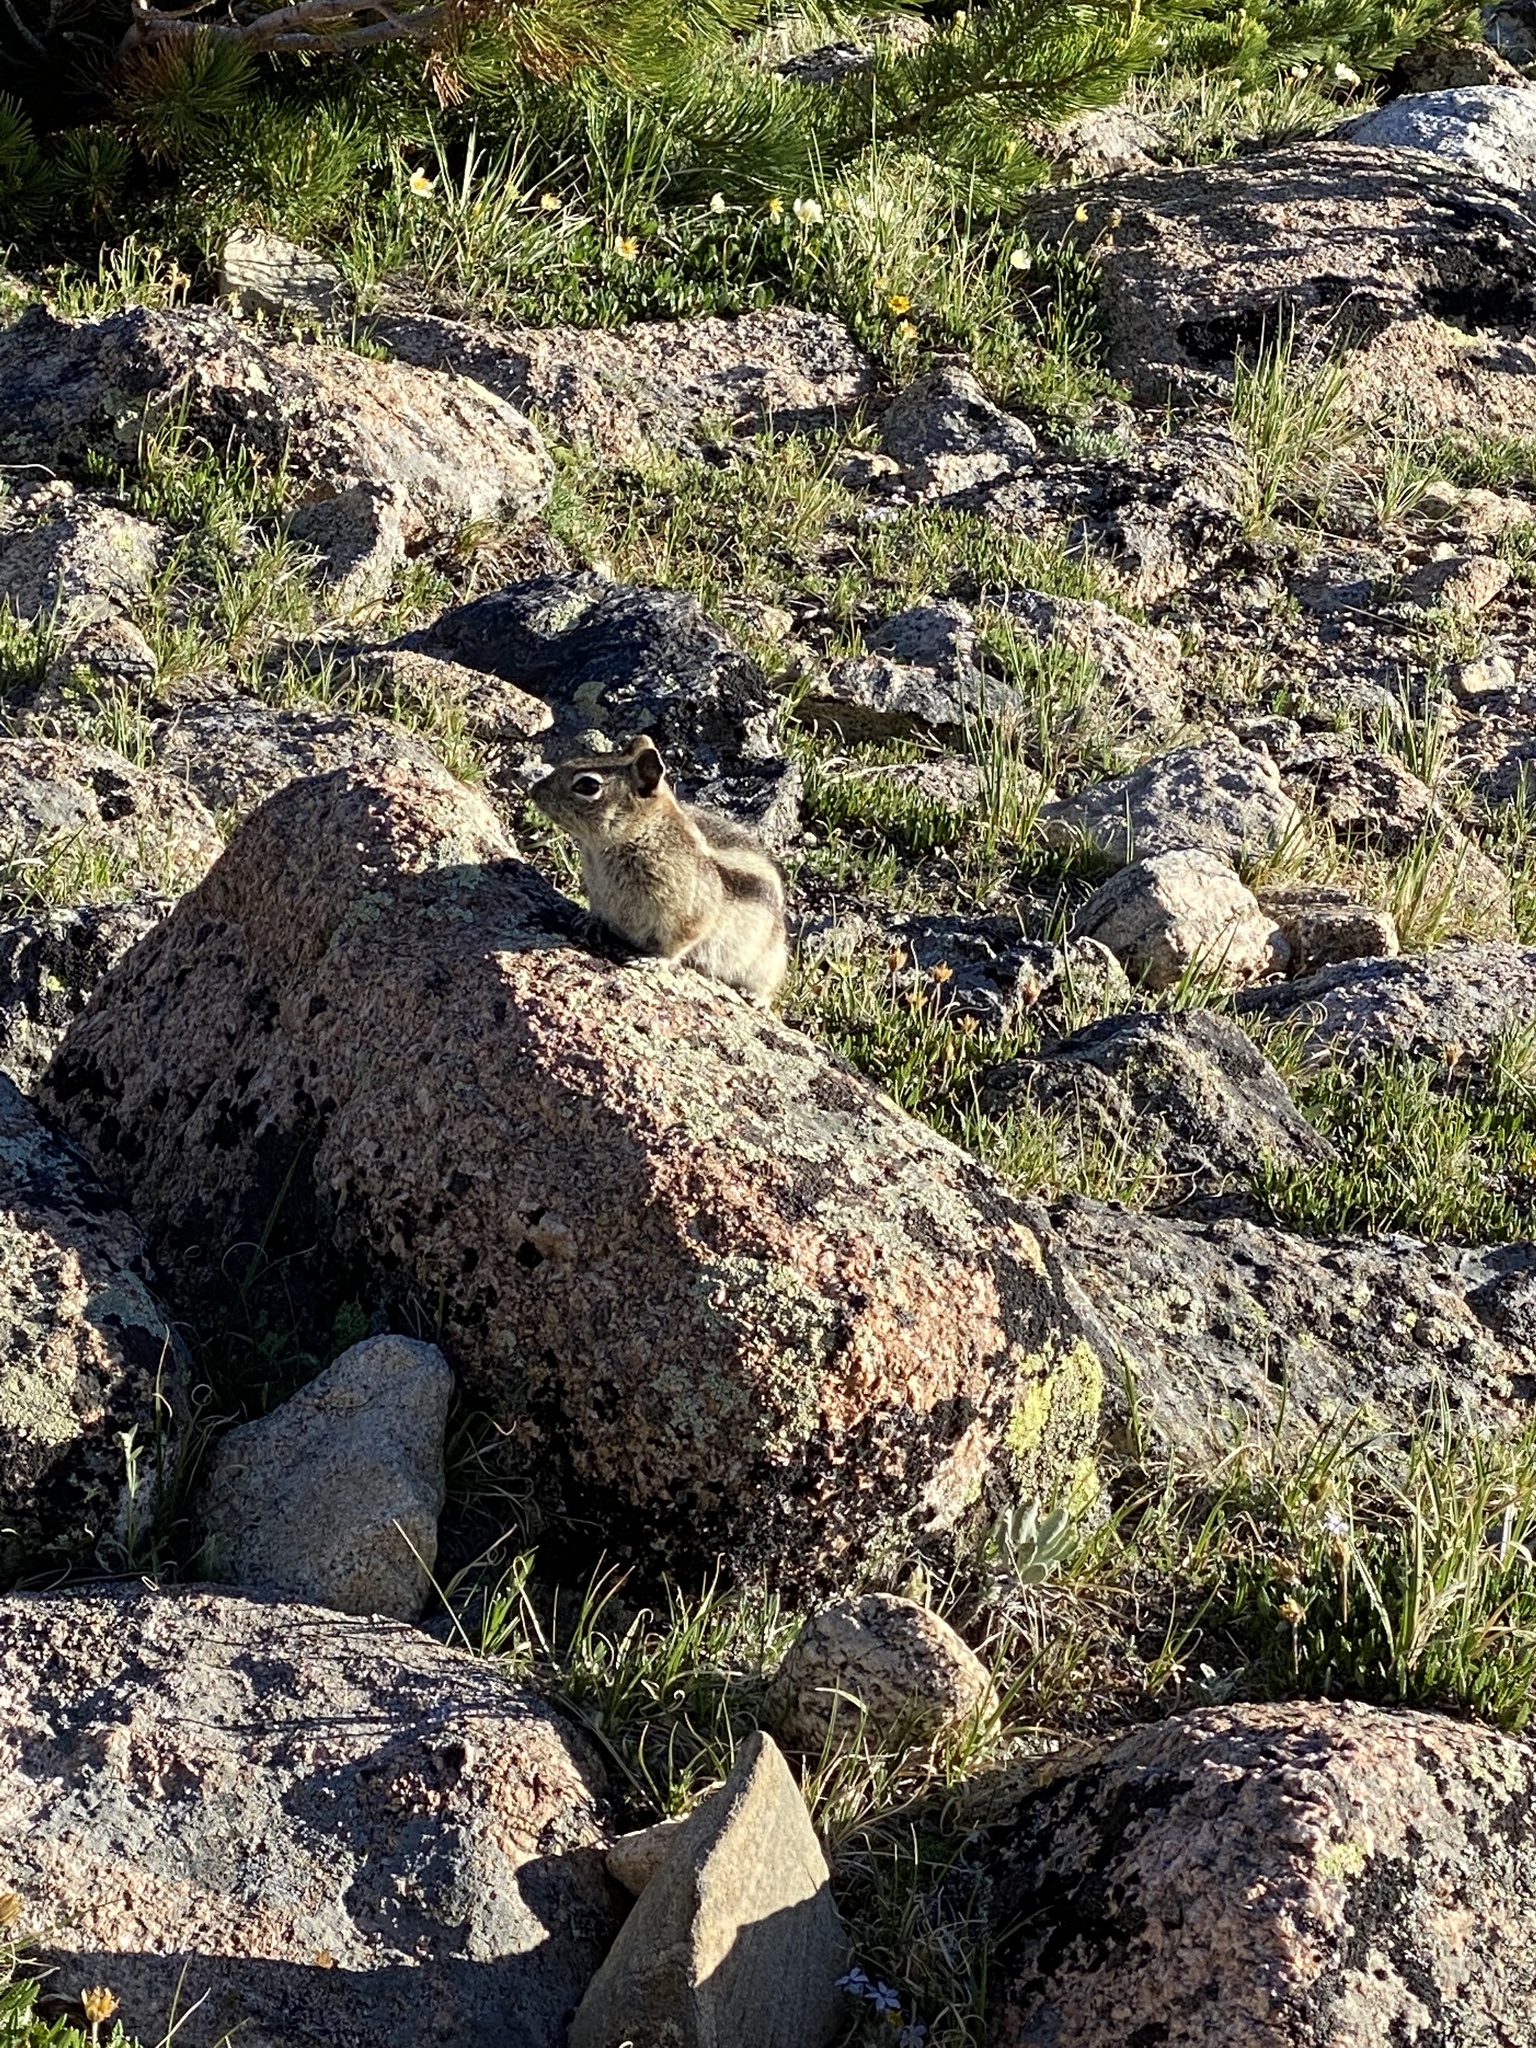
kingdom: Animalia
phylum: Chordata
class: Mammalia
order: Rodentia
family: Sciuridae
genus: Callospermophilus
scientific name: Callospermophilus lateralis
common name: Golden-mantled ground squirrel
